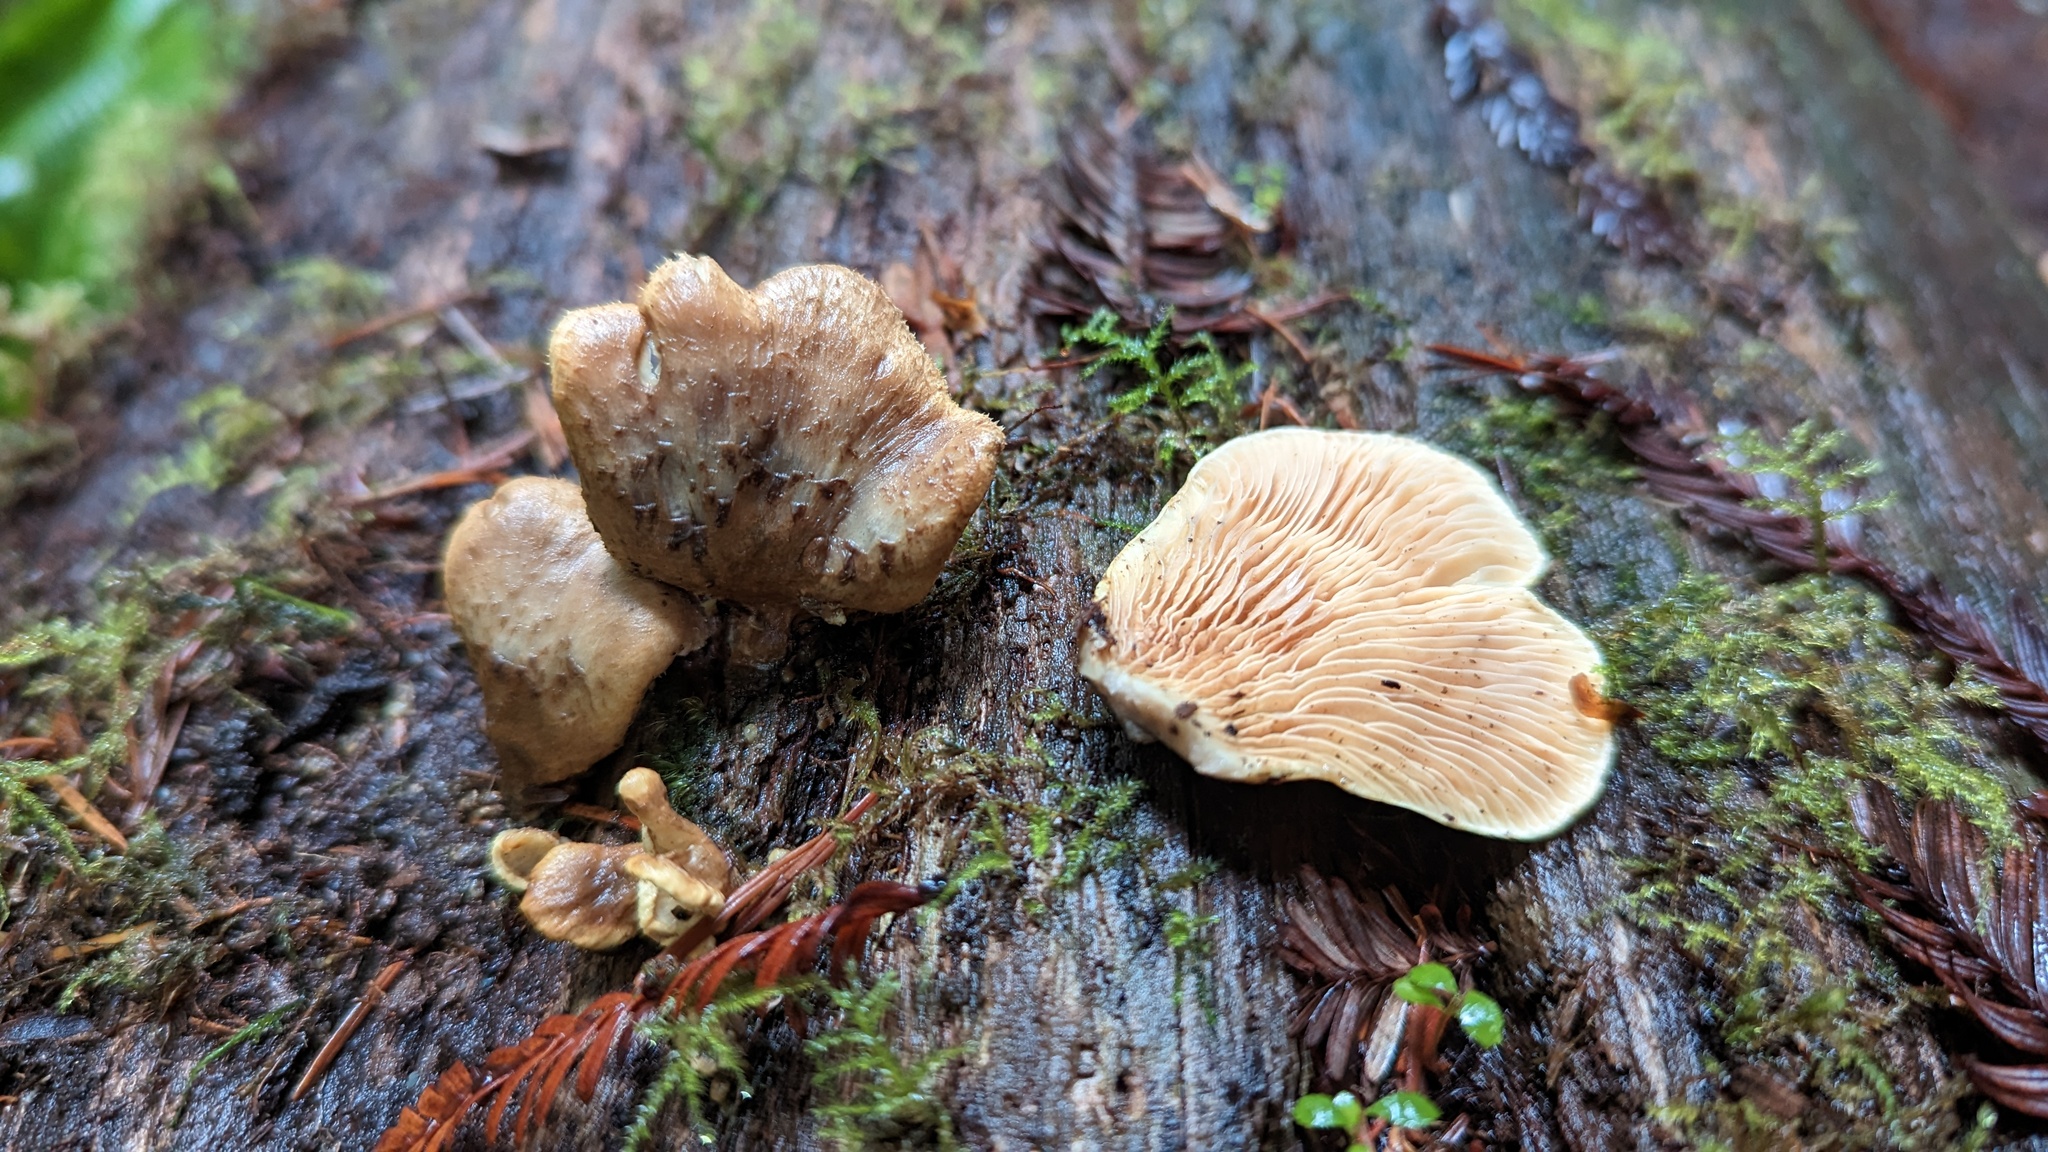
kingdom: Fungi
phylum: Basidiomycota
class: Agaricomycetes
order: Boletales
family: Tapinellaceae
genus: Tapinella
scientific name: Tapinella panuoides
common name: Oyster rollrim
